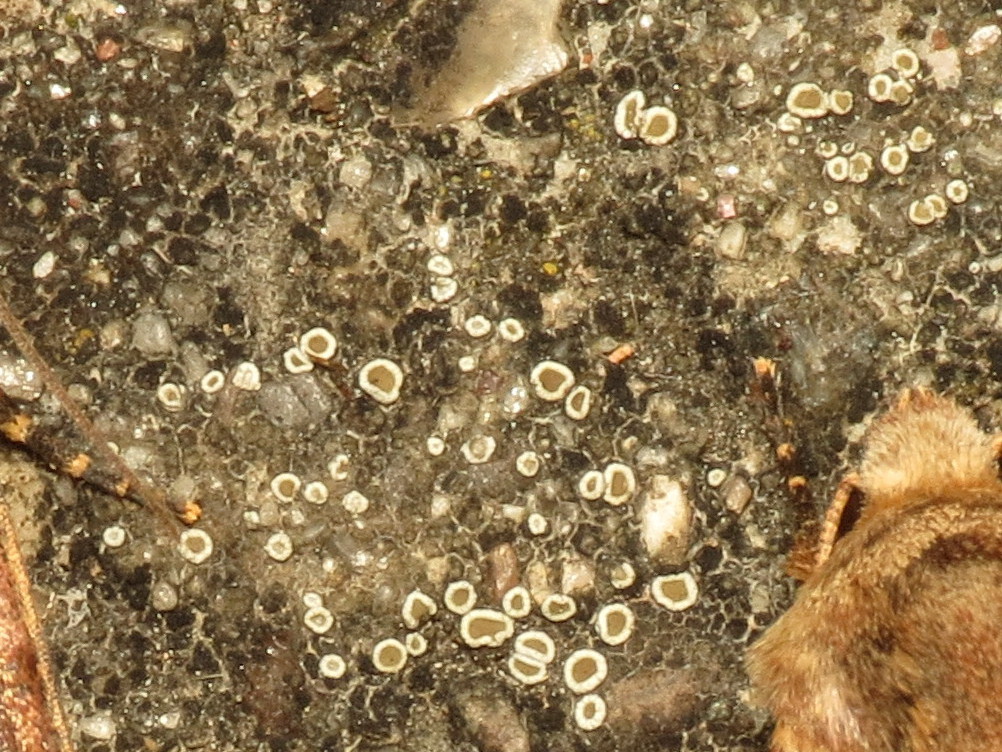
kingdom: Fungi
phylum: Ascomycota
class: Lecanoromycetes
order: Lecanorales
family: Lecanoraceae
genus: Polyozosia
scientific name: Polyozosia semipallida
